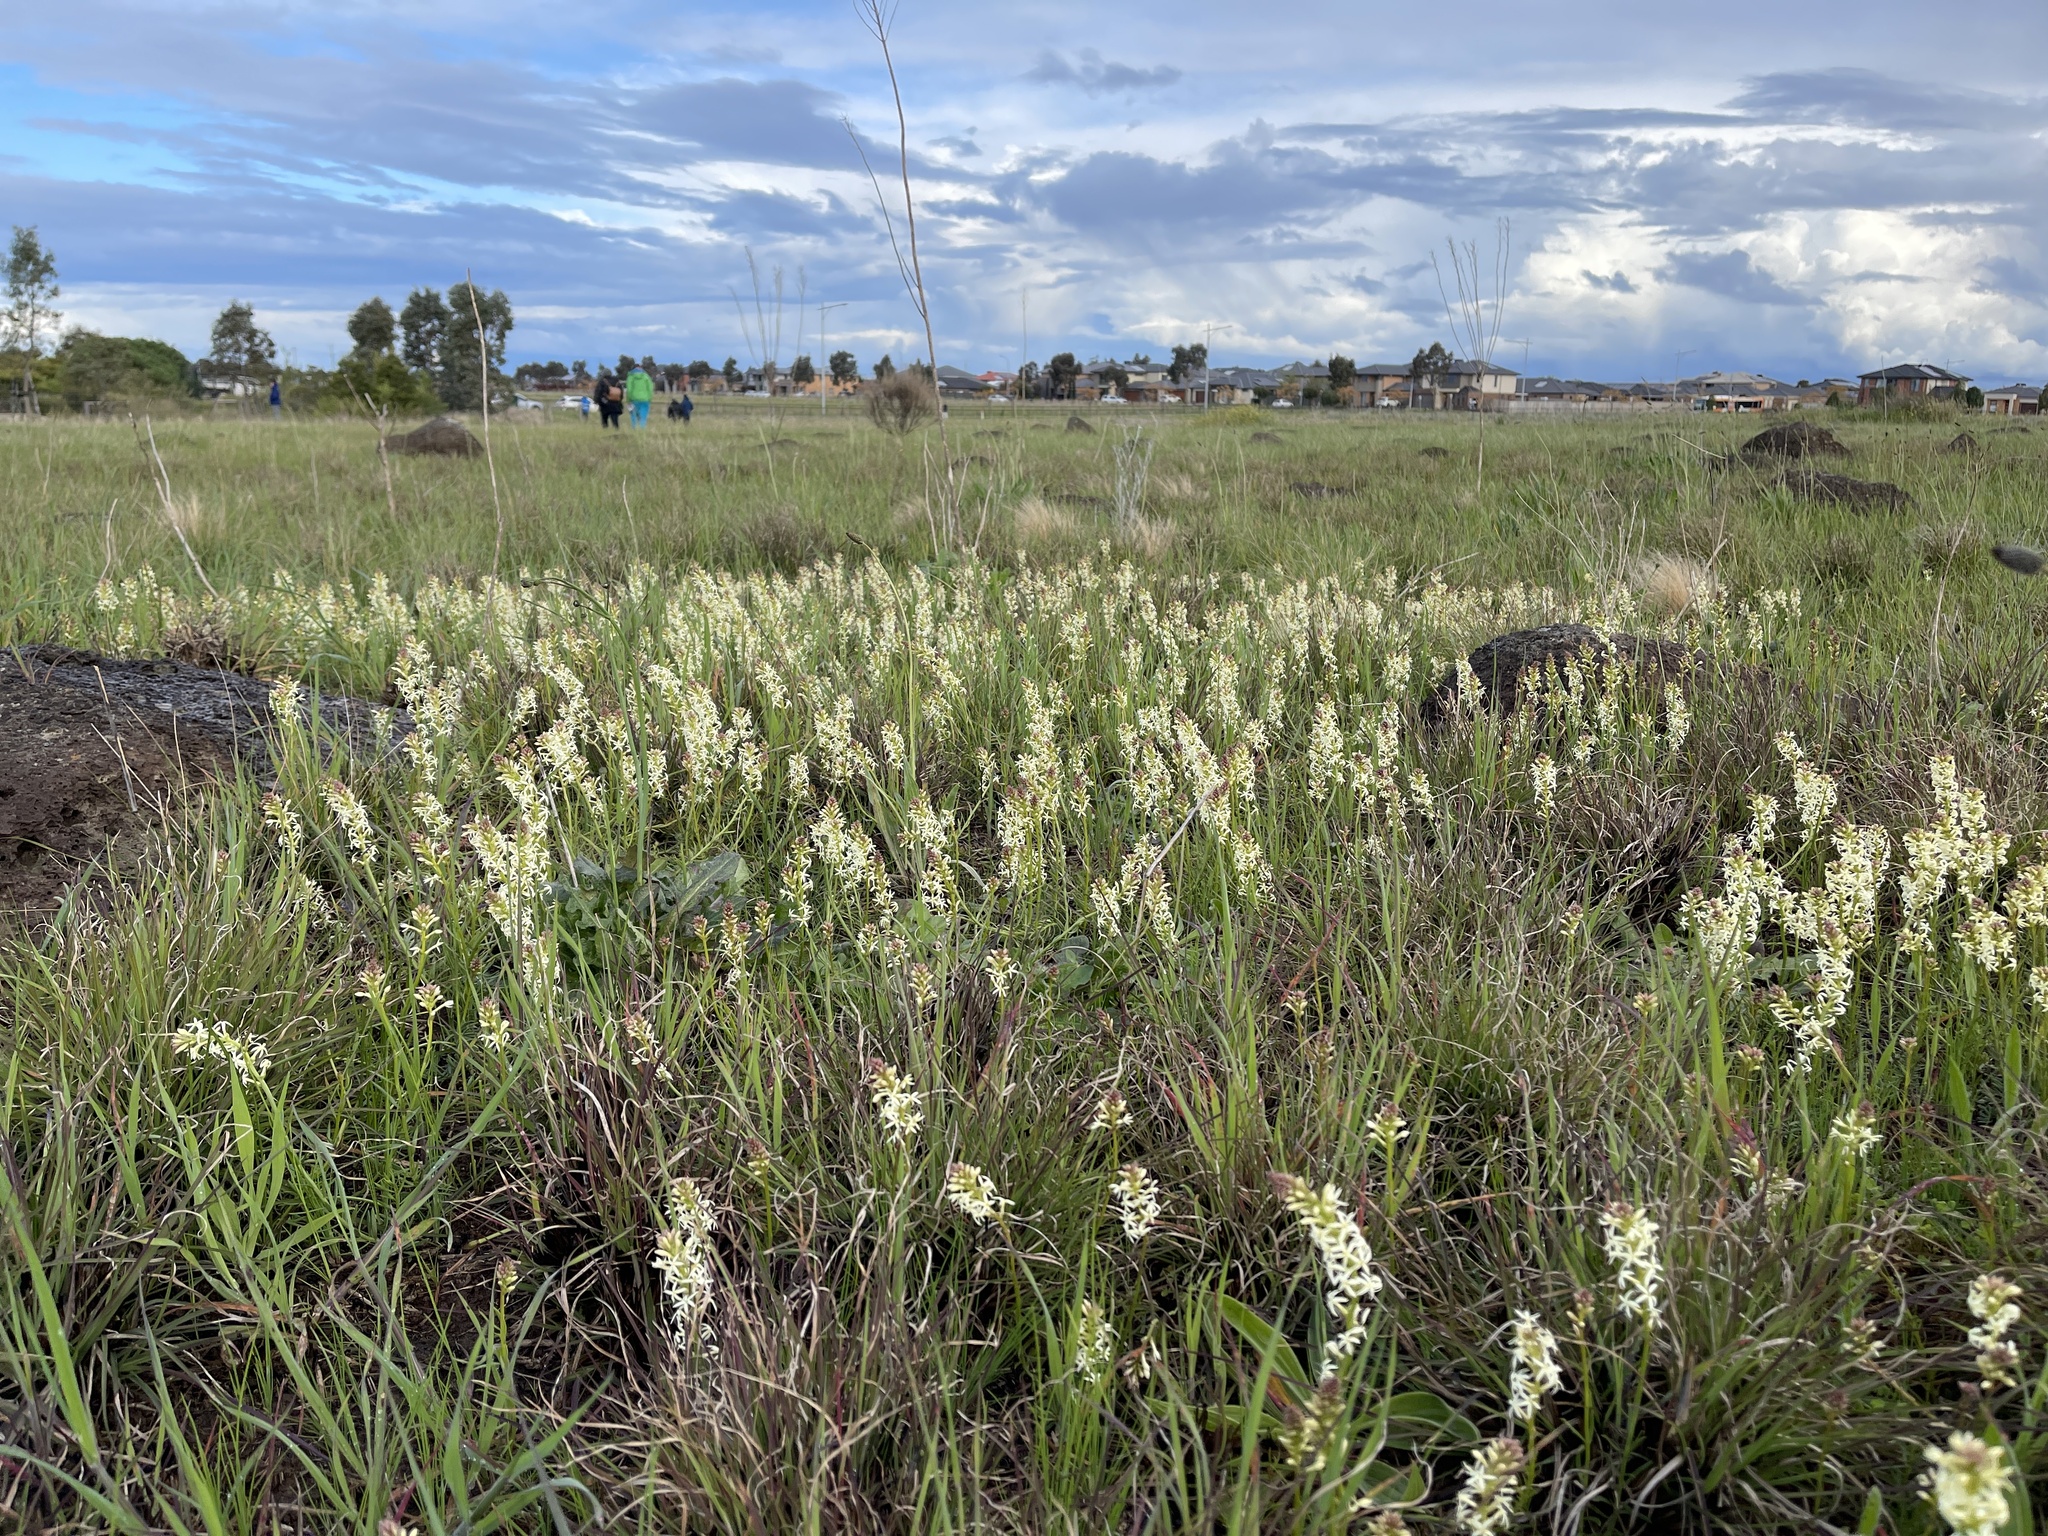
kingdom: Plantae
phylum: Tracheophyta
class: Magnoliopsida
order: Celastrales
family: Celastraceae
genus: Stackhousia
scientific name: Stackhousia subterranea
